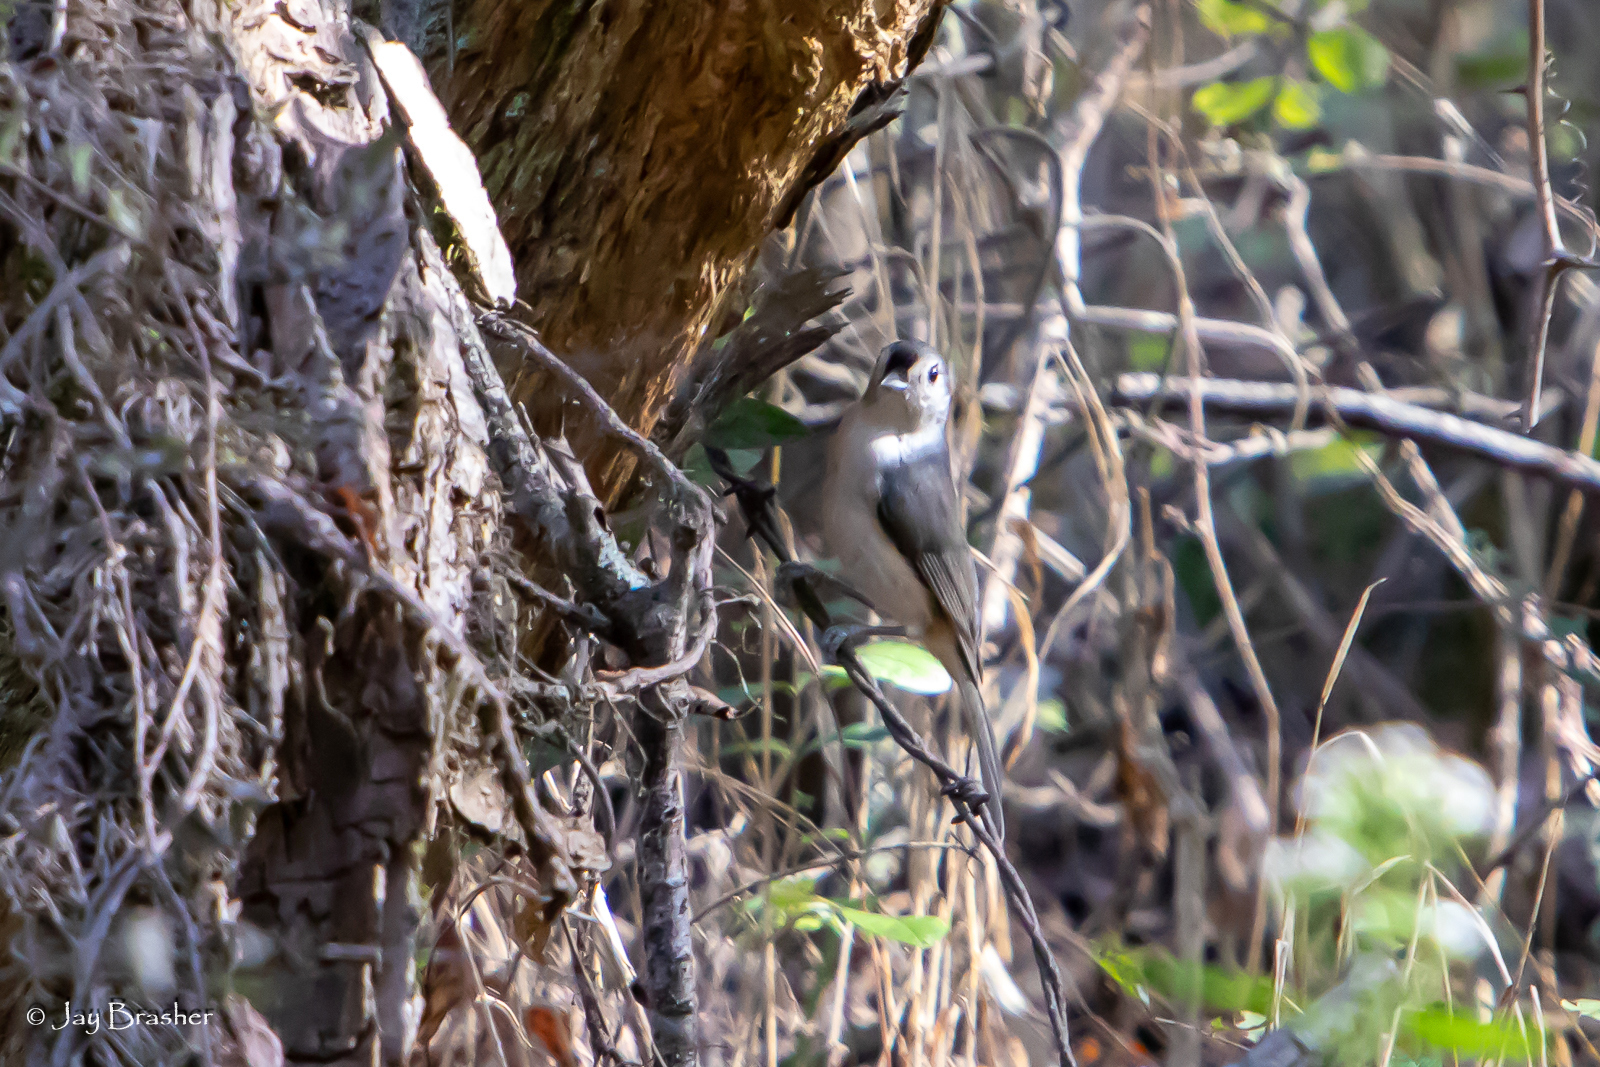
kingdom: Animalia
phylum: Chordata
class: Aves
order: Passeriformes
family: Paridae
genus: Baeolophus
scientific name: Baeolophus bicolor
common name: Tufted titmouse
